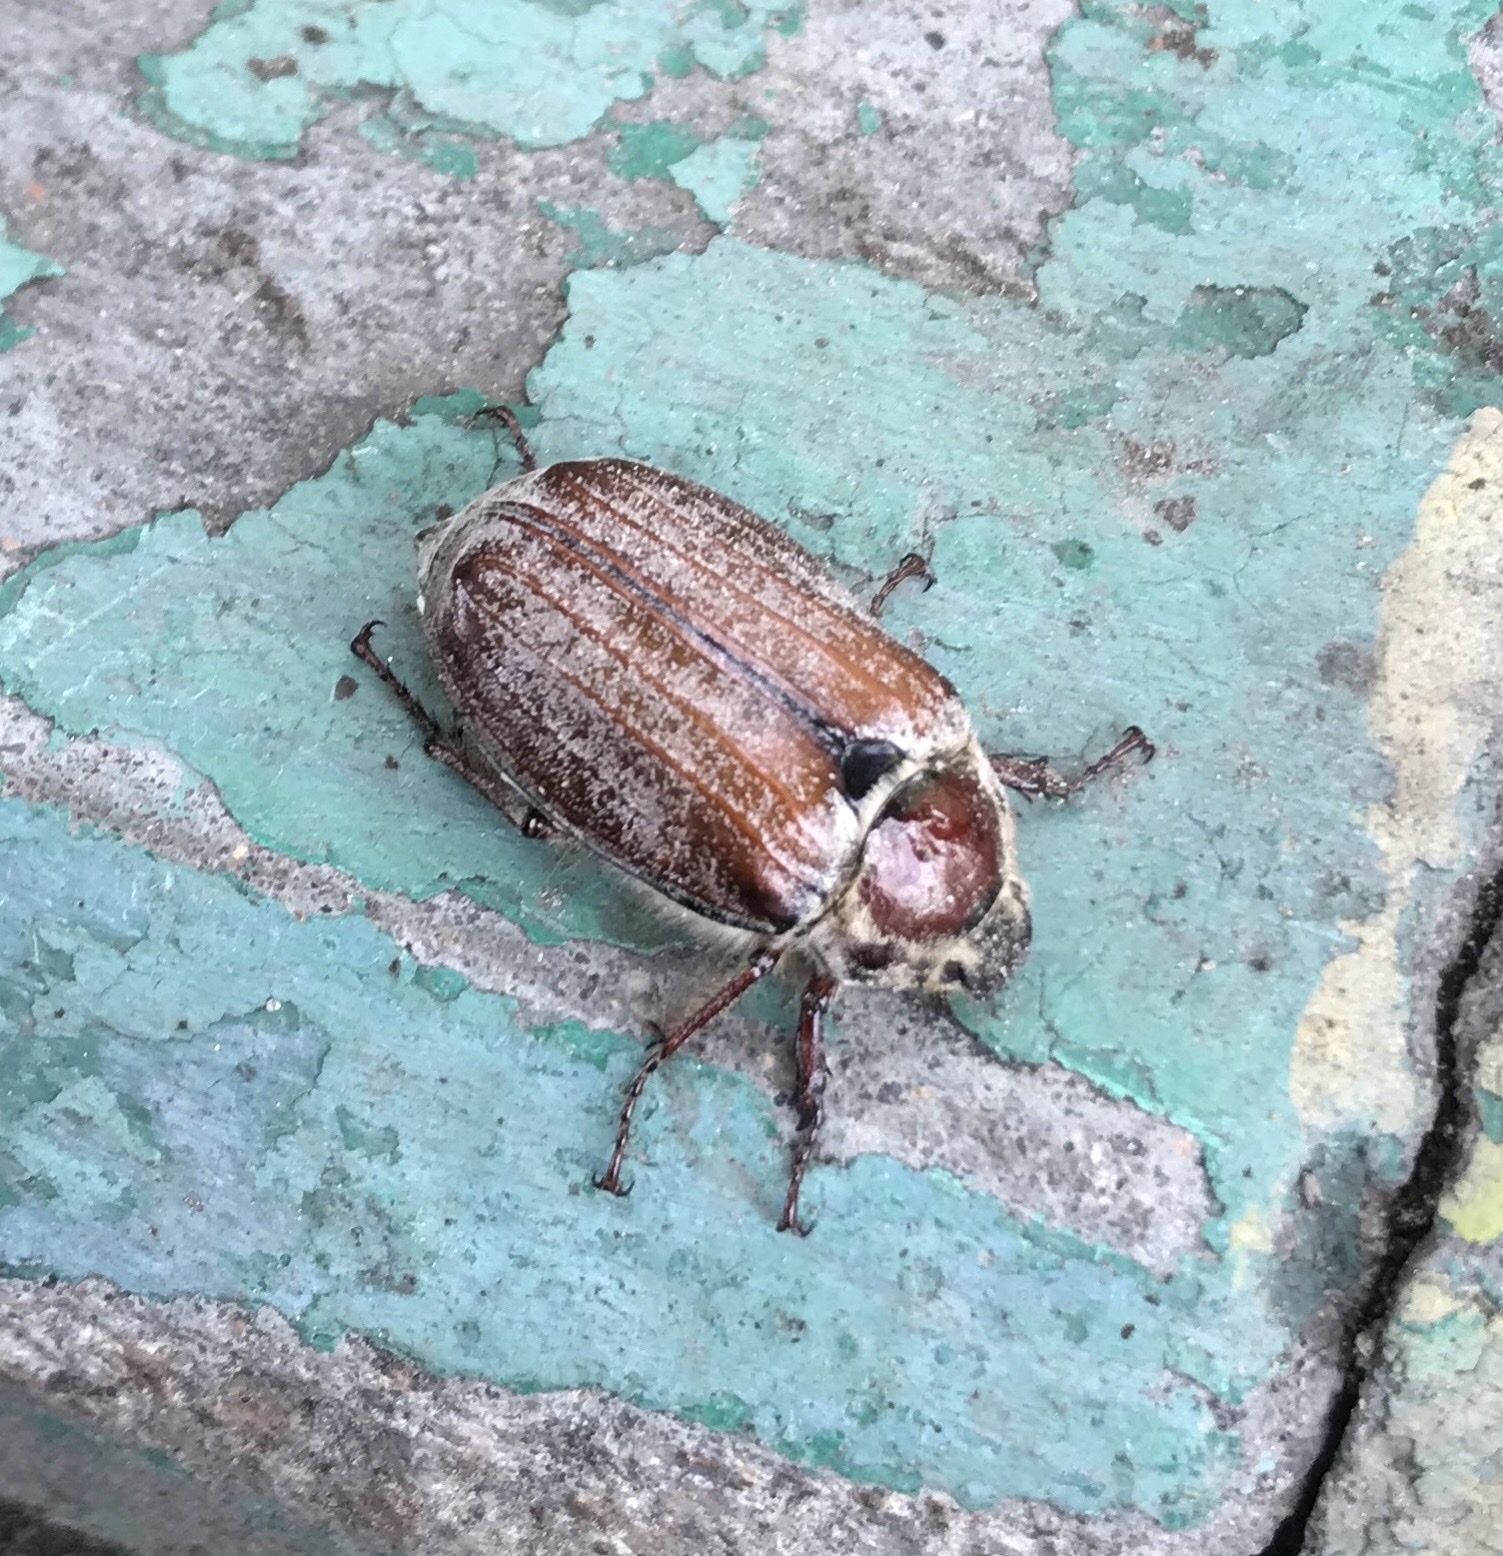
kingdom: Animalia
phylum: Arthropoda
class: Insecta
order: Coleoptera
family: Scarabaeidae
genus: Melolontha
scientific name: Melolontha hippocastani
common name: Chestnut cockchafer
